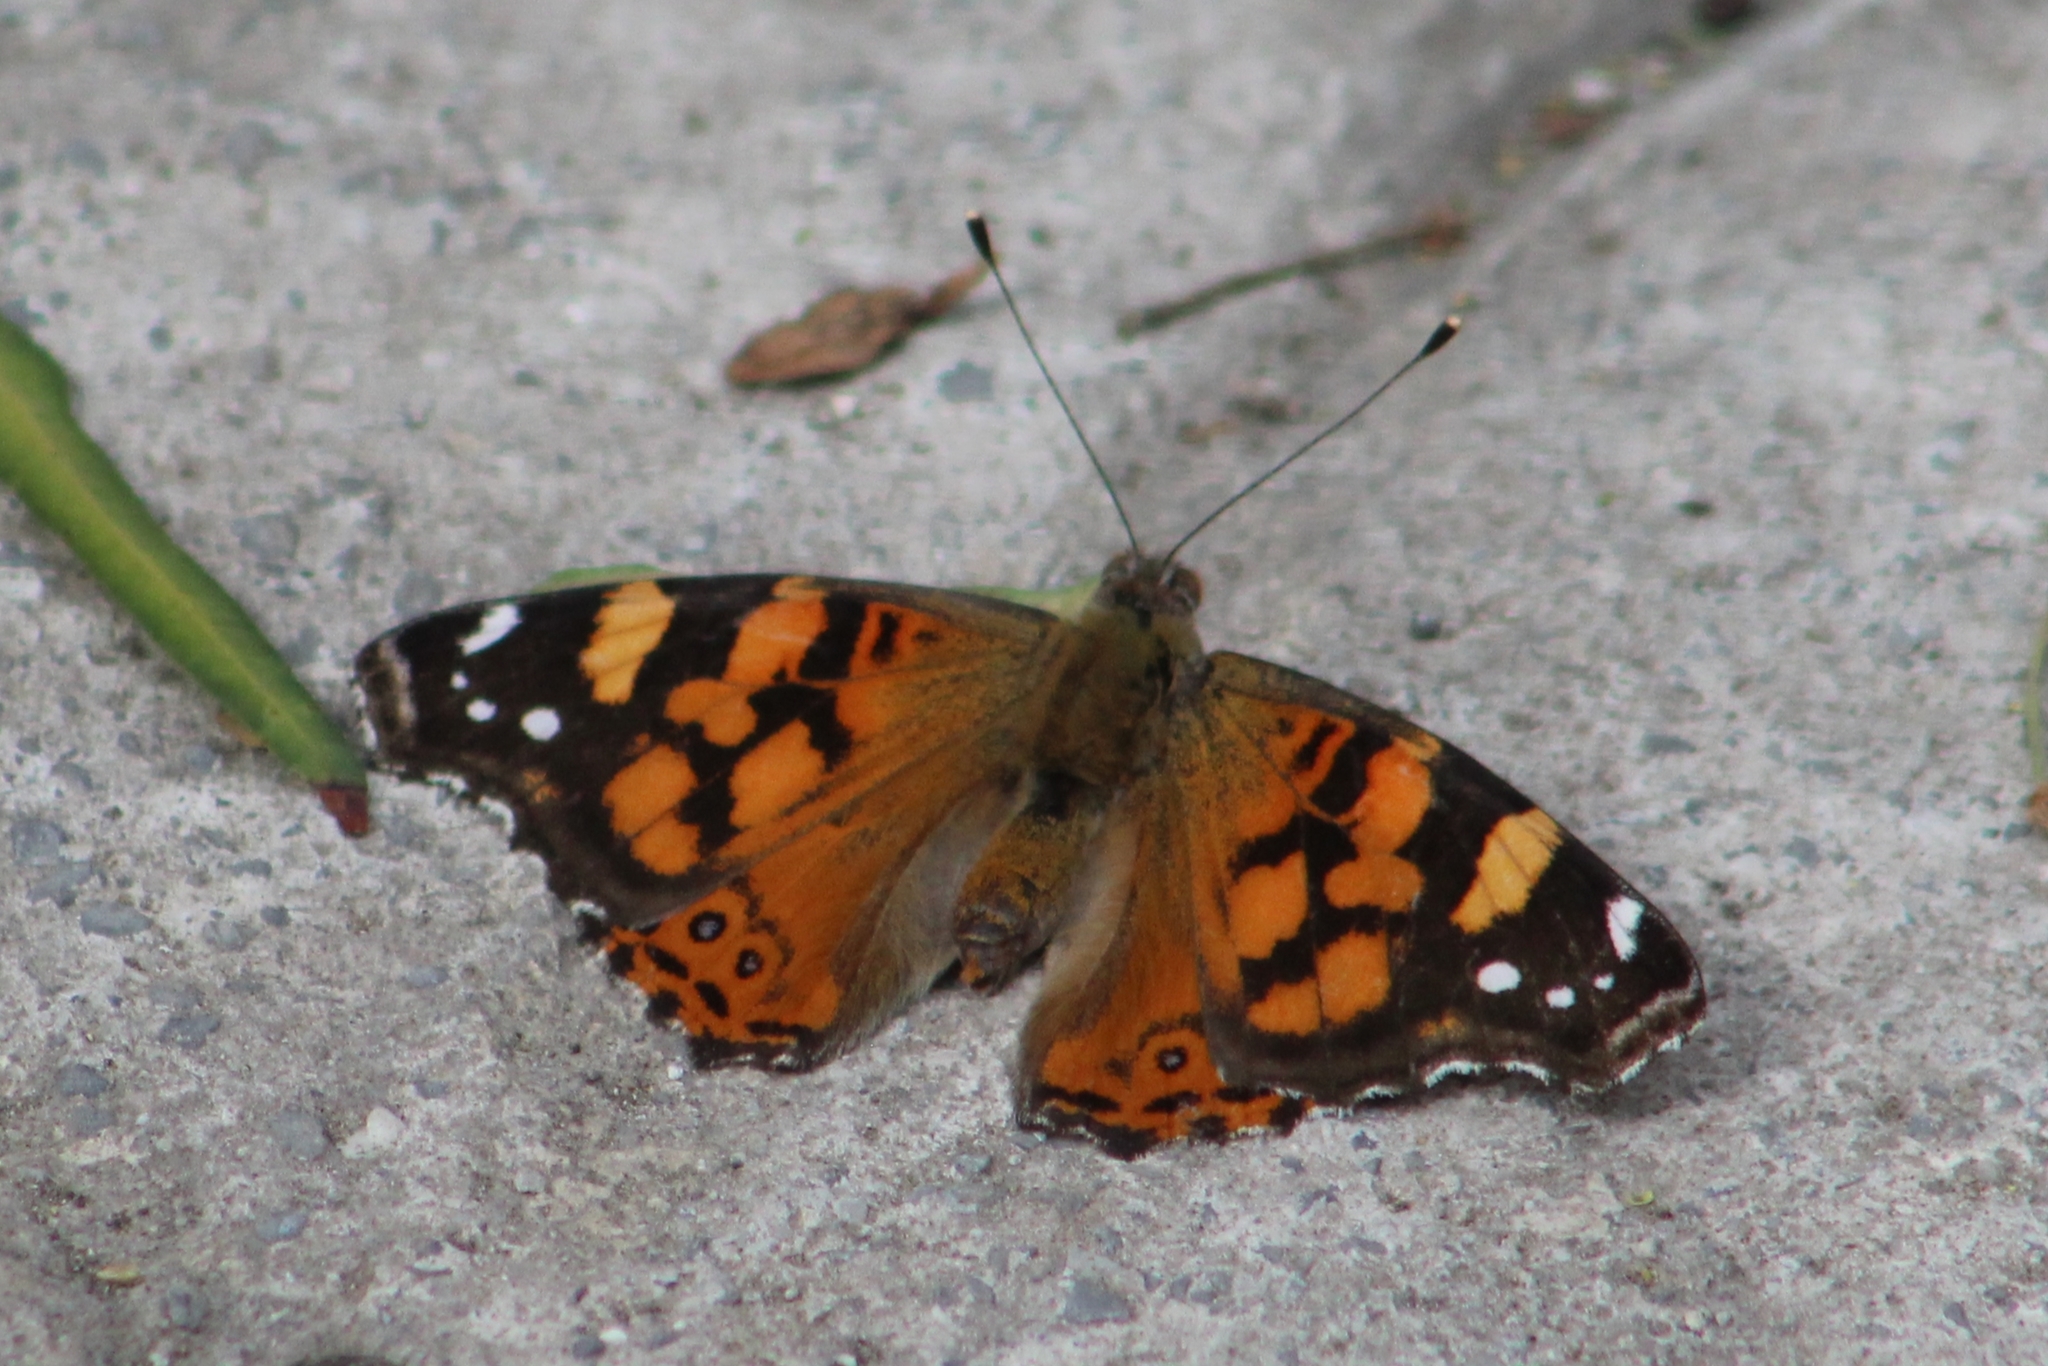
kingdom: Animalia
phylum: Arthropoda
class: Insecta
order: Lepidoptera
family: Nymphalidae
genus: Vanessa
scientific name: Vanessa annabella
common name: West coast lady
